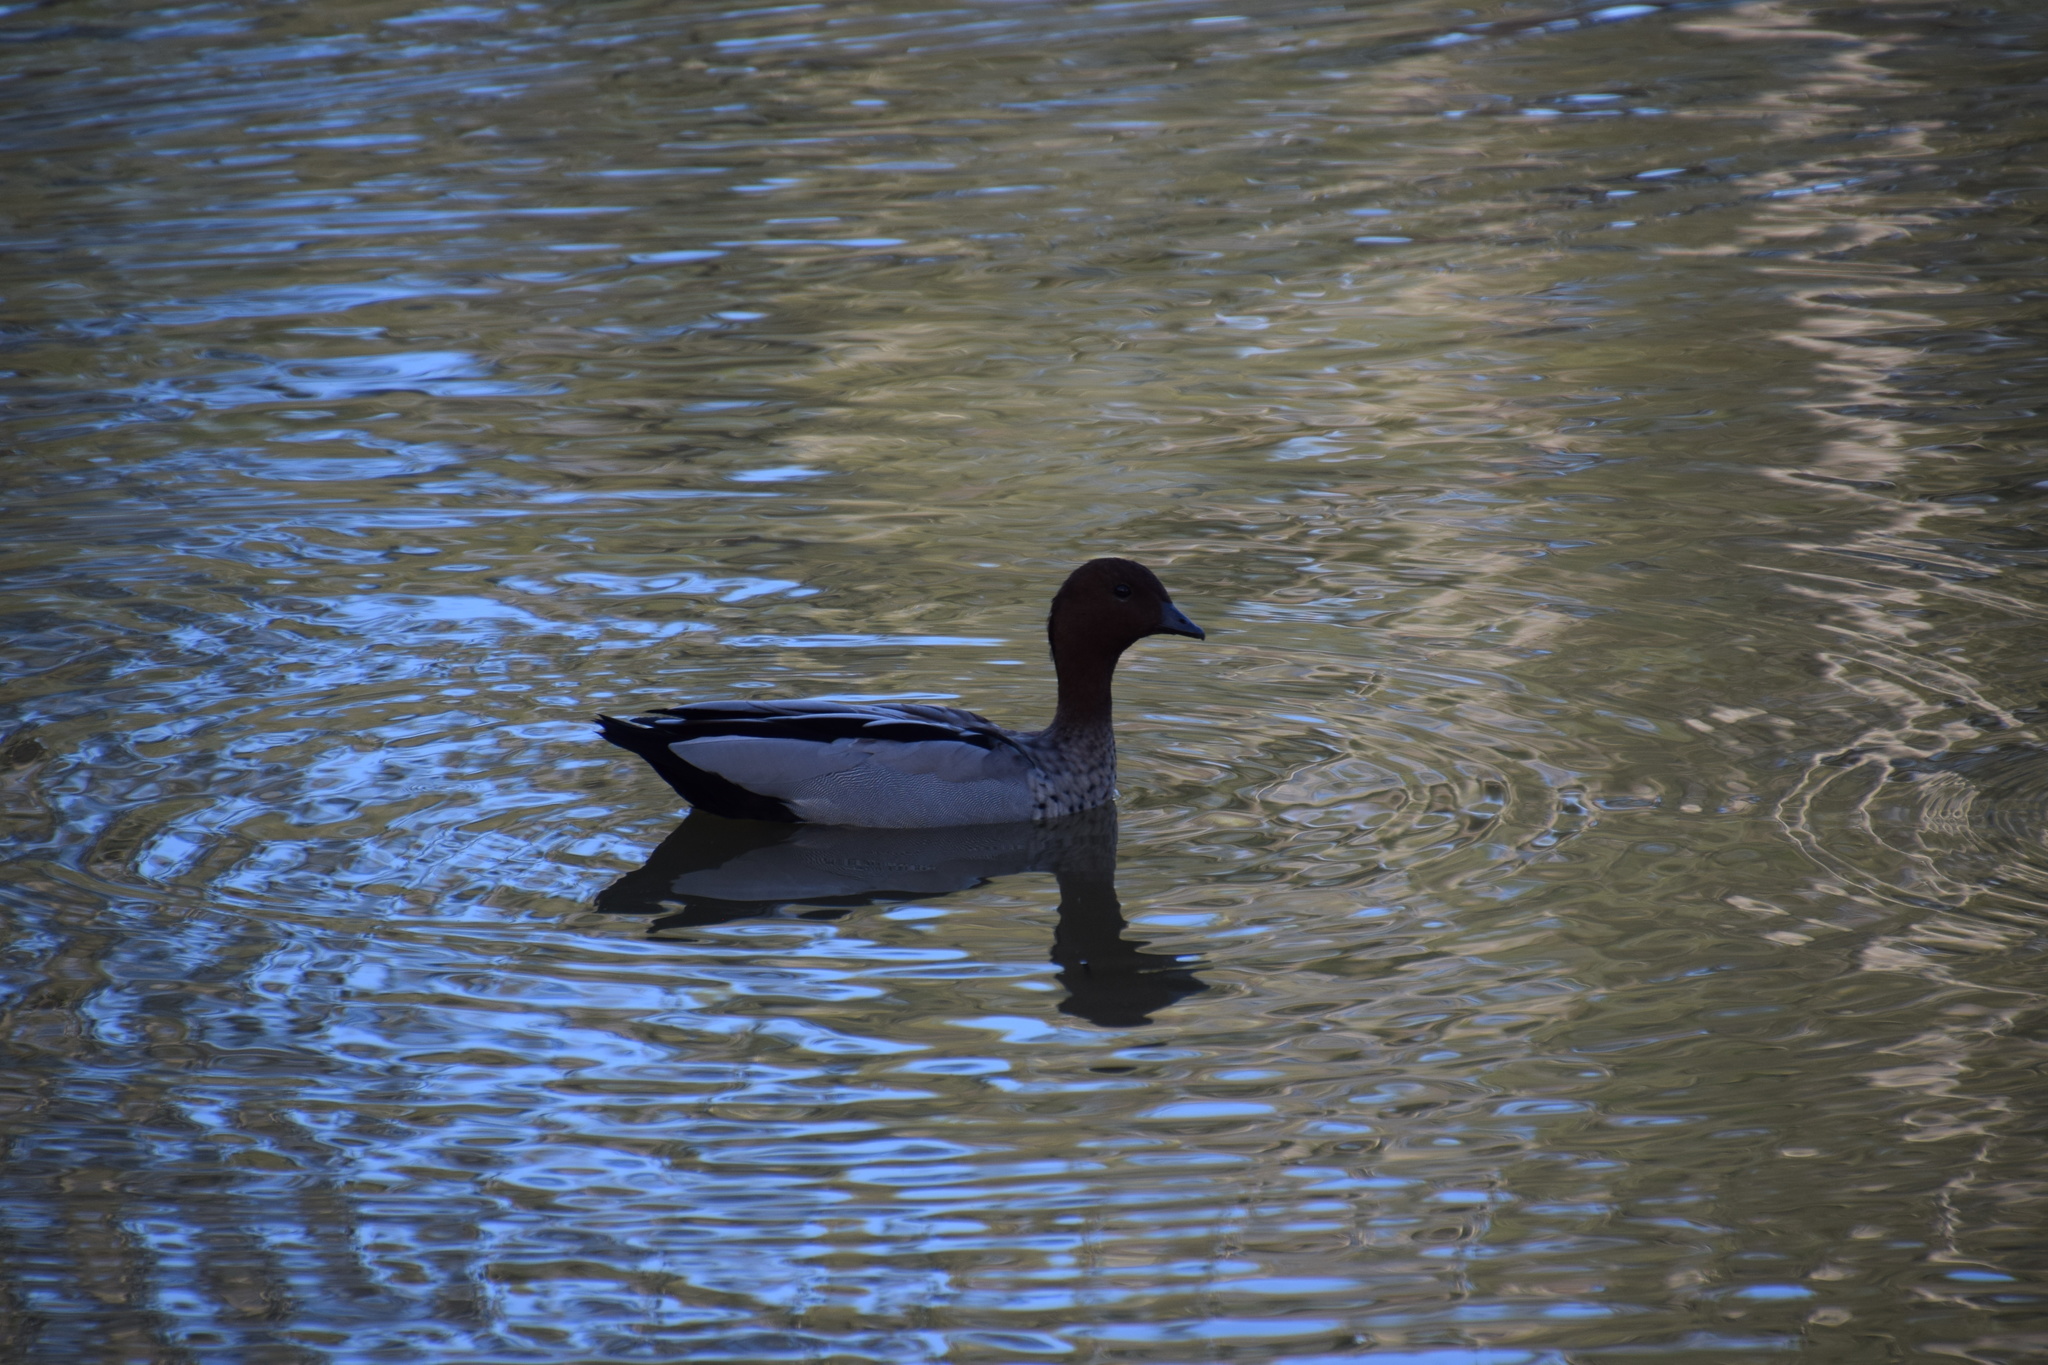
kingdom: Animalia
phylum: Chordata
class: Aves
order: Anseriformes
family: Anatidae
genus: Chenonetta
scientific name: Chenonetta jubata
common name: Maned duck
